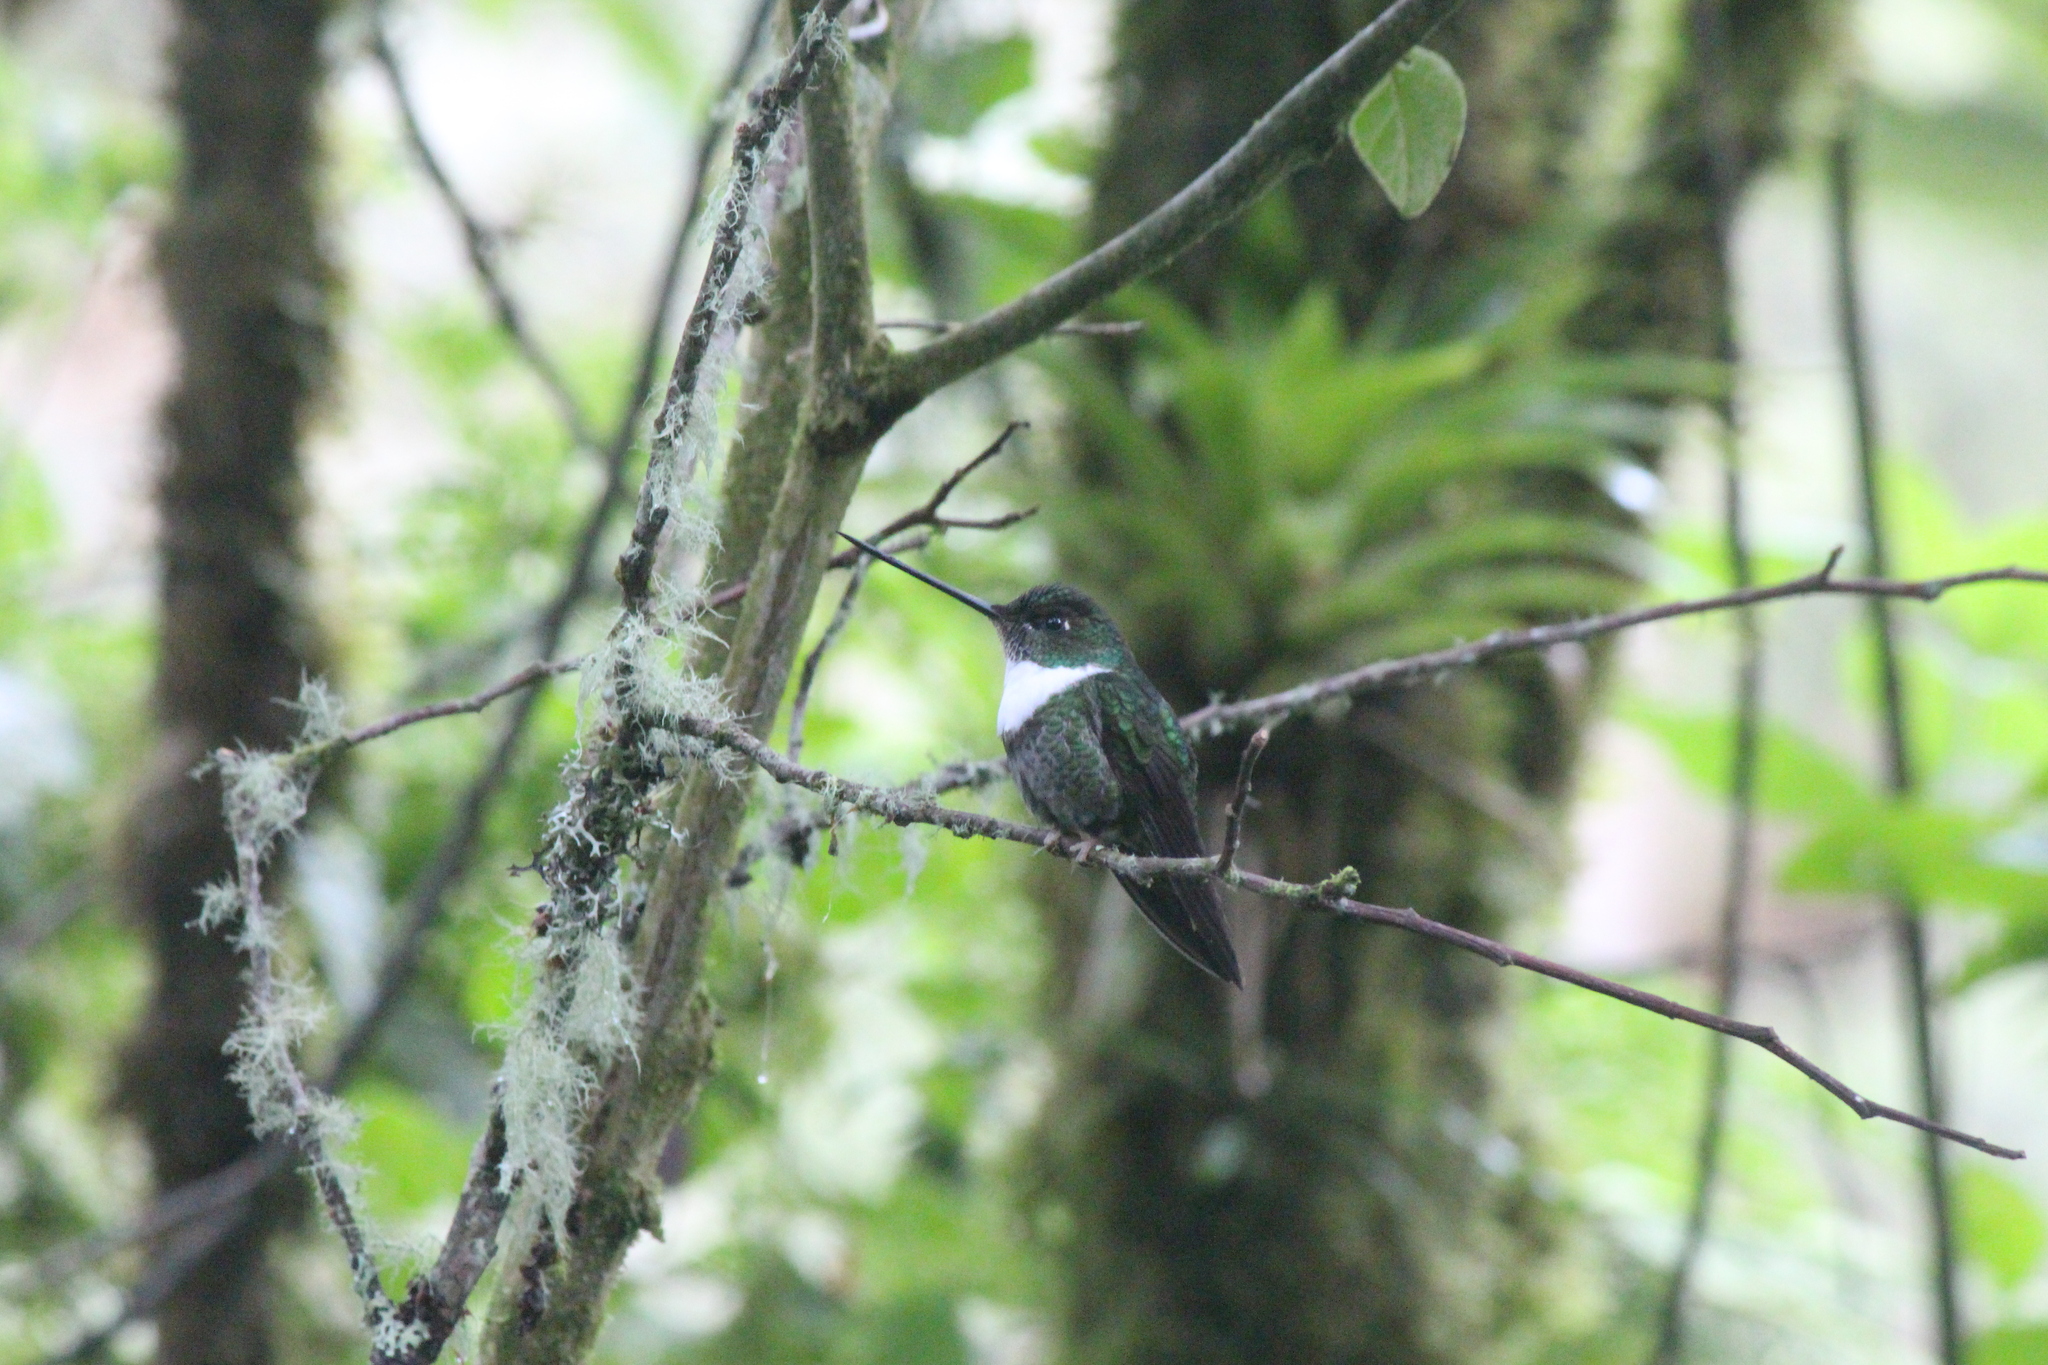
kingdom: Animalia
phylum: Chordata
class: Aves
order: Apodiformes
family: Trochilidae
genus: Coeligena
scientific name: Coeligena torquata
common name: Collared inca
